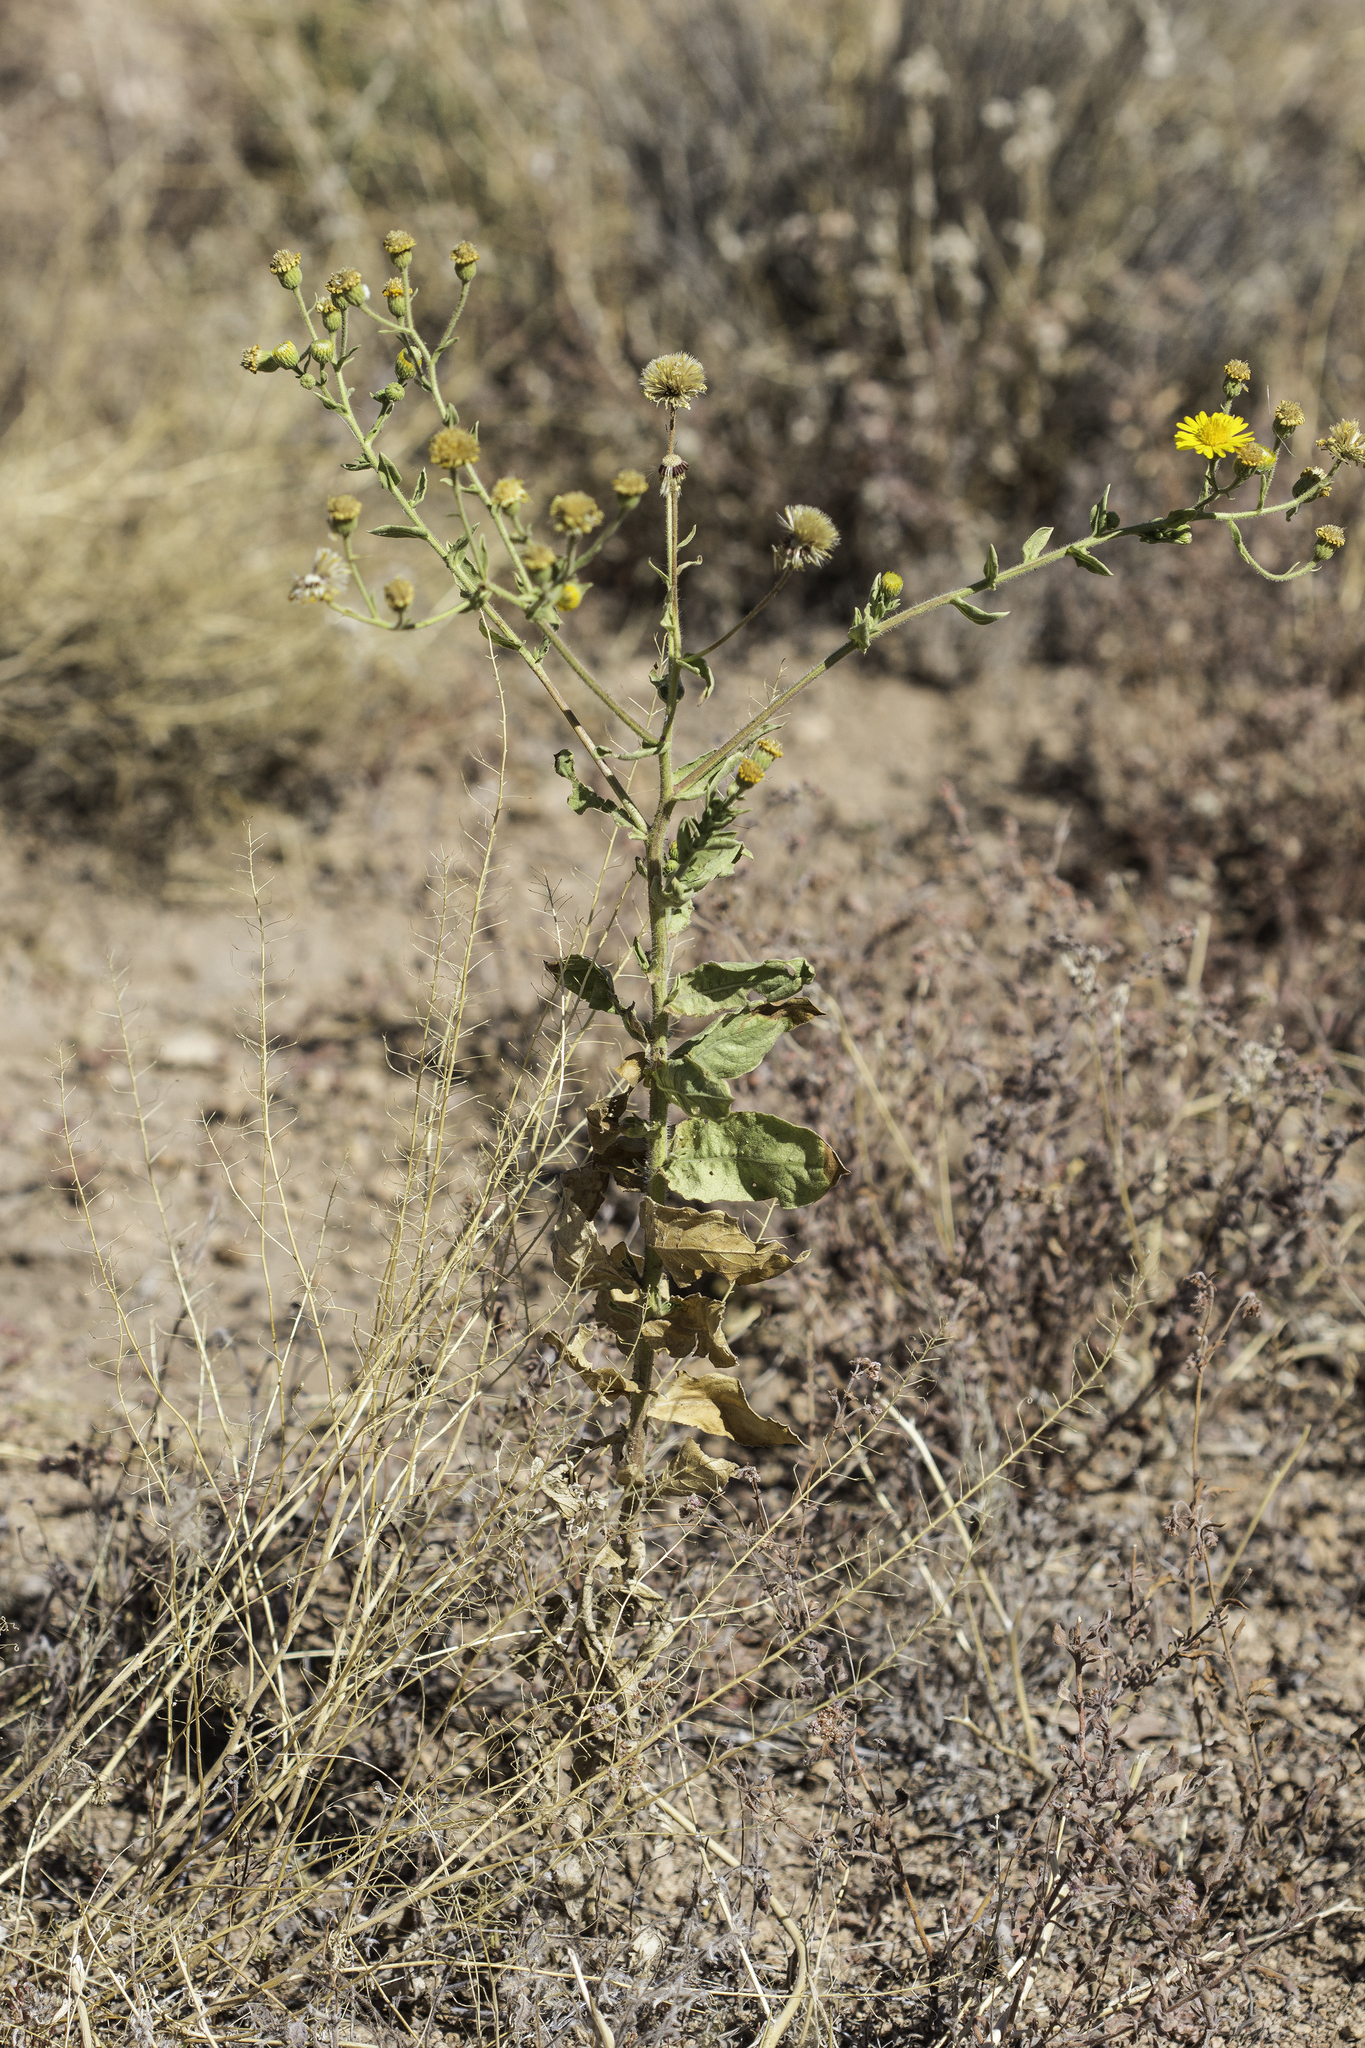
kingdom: Plantae
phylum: Tracheophyta
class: Magnoliopsida
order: Asterales
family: Asteraceae
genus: Heterotheca
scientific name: Heterotheca subaxillaris
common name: Camphorweed
